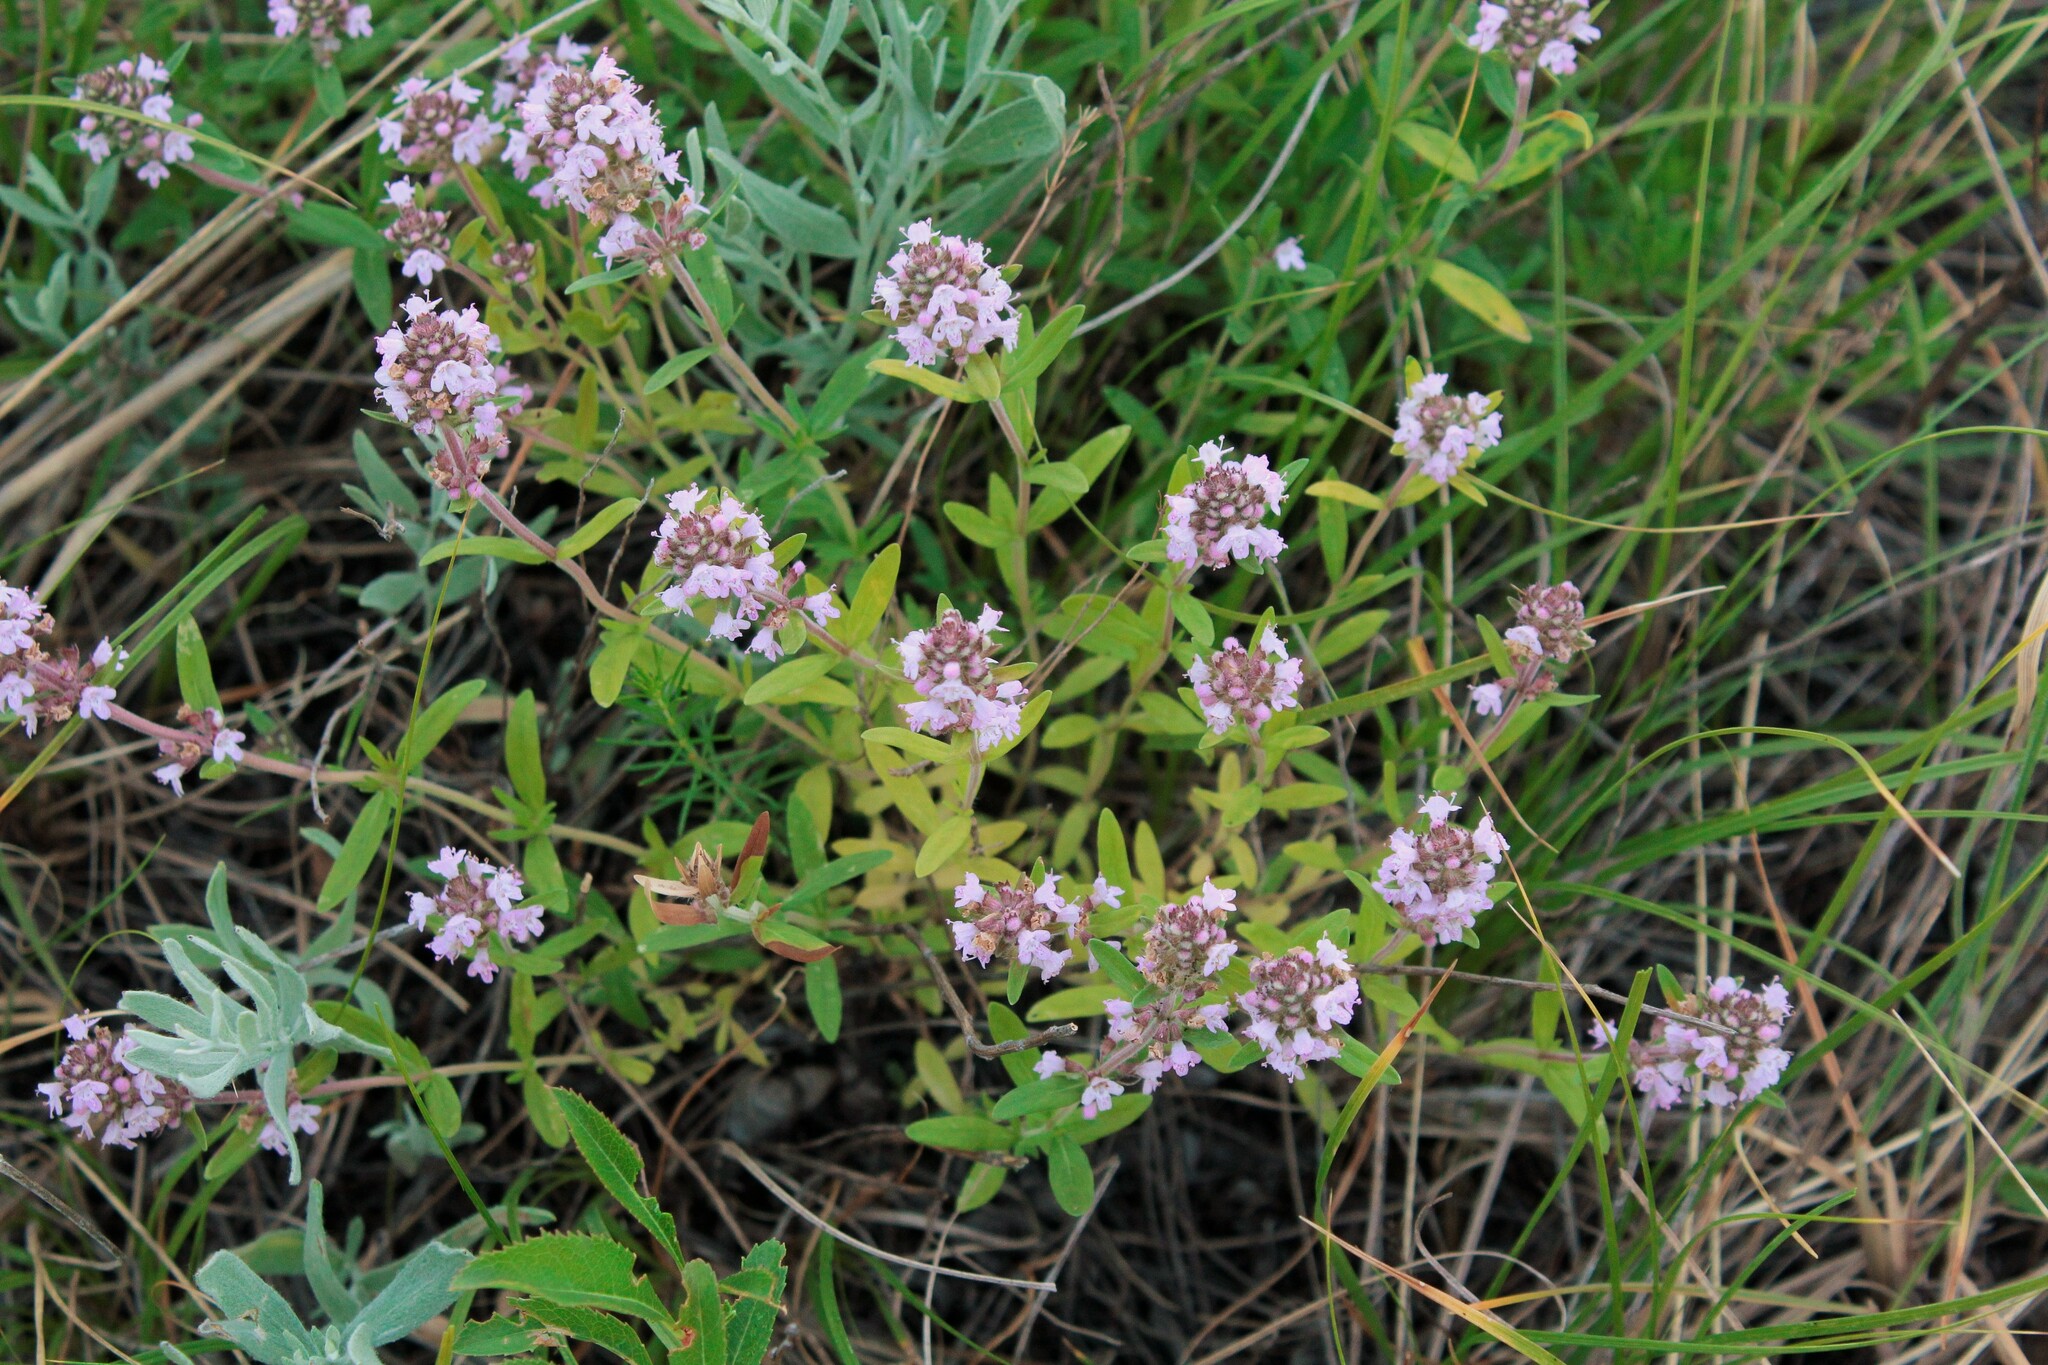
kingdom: Plantae
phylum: Tracheophyta
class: Magnoliopsida
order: Lamiales
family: Lamiaceae
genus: Thymus
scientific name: Thymus pannonicus
